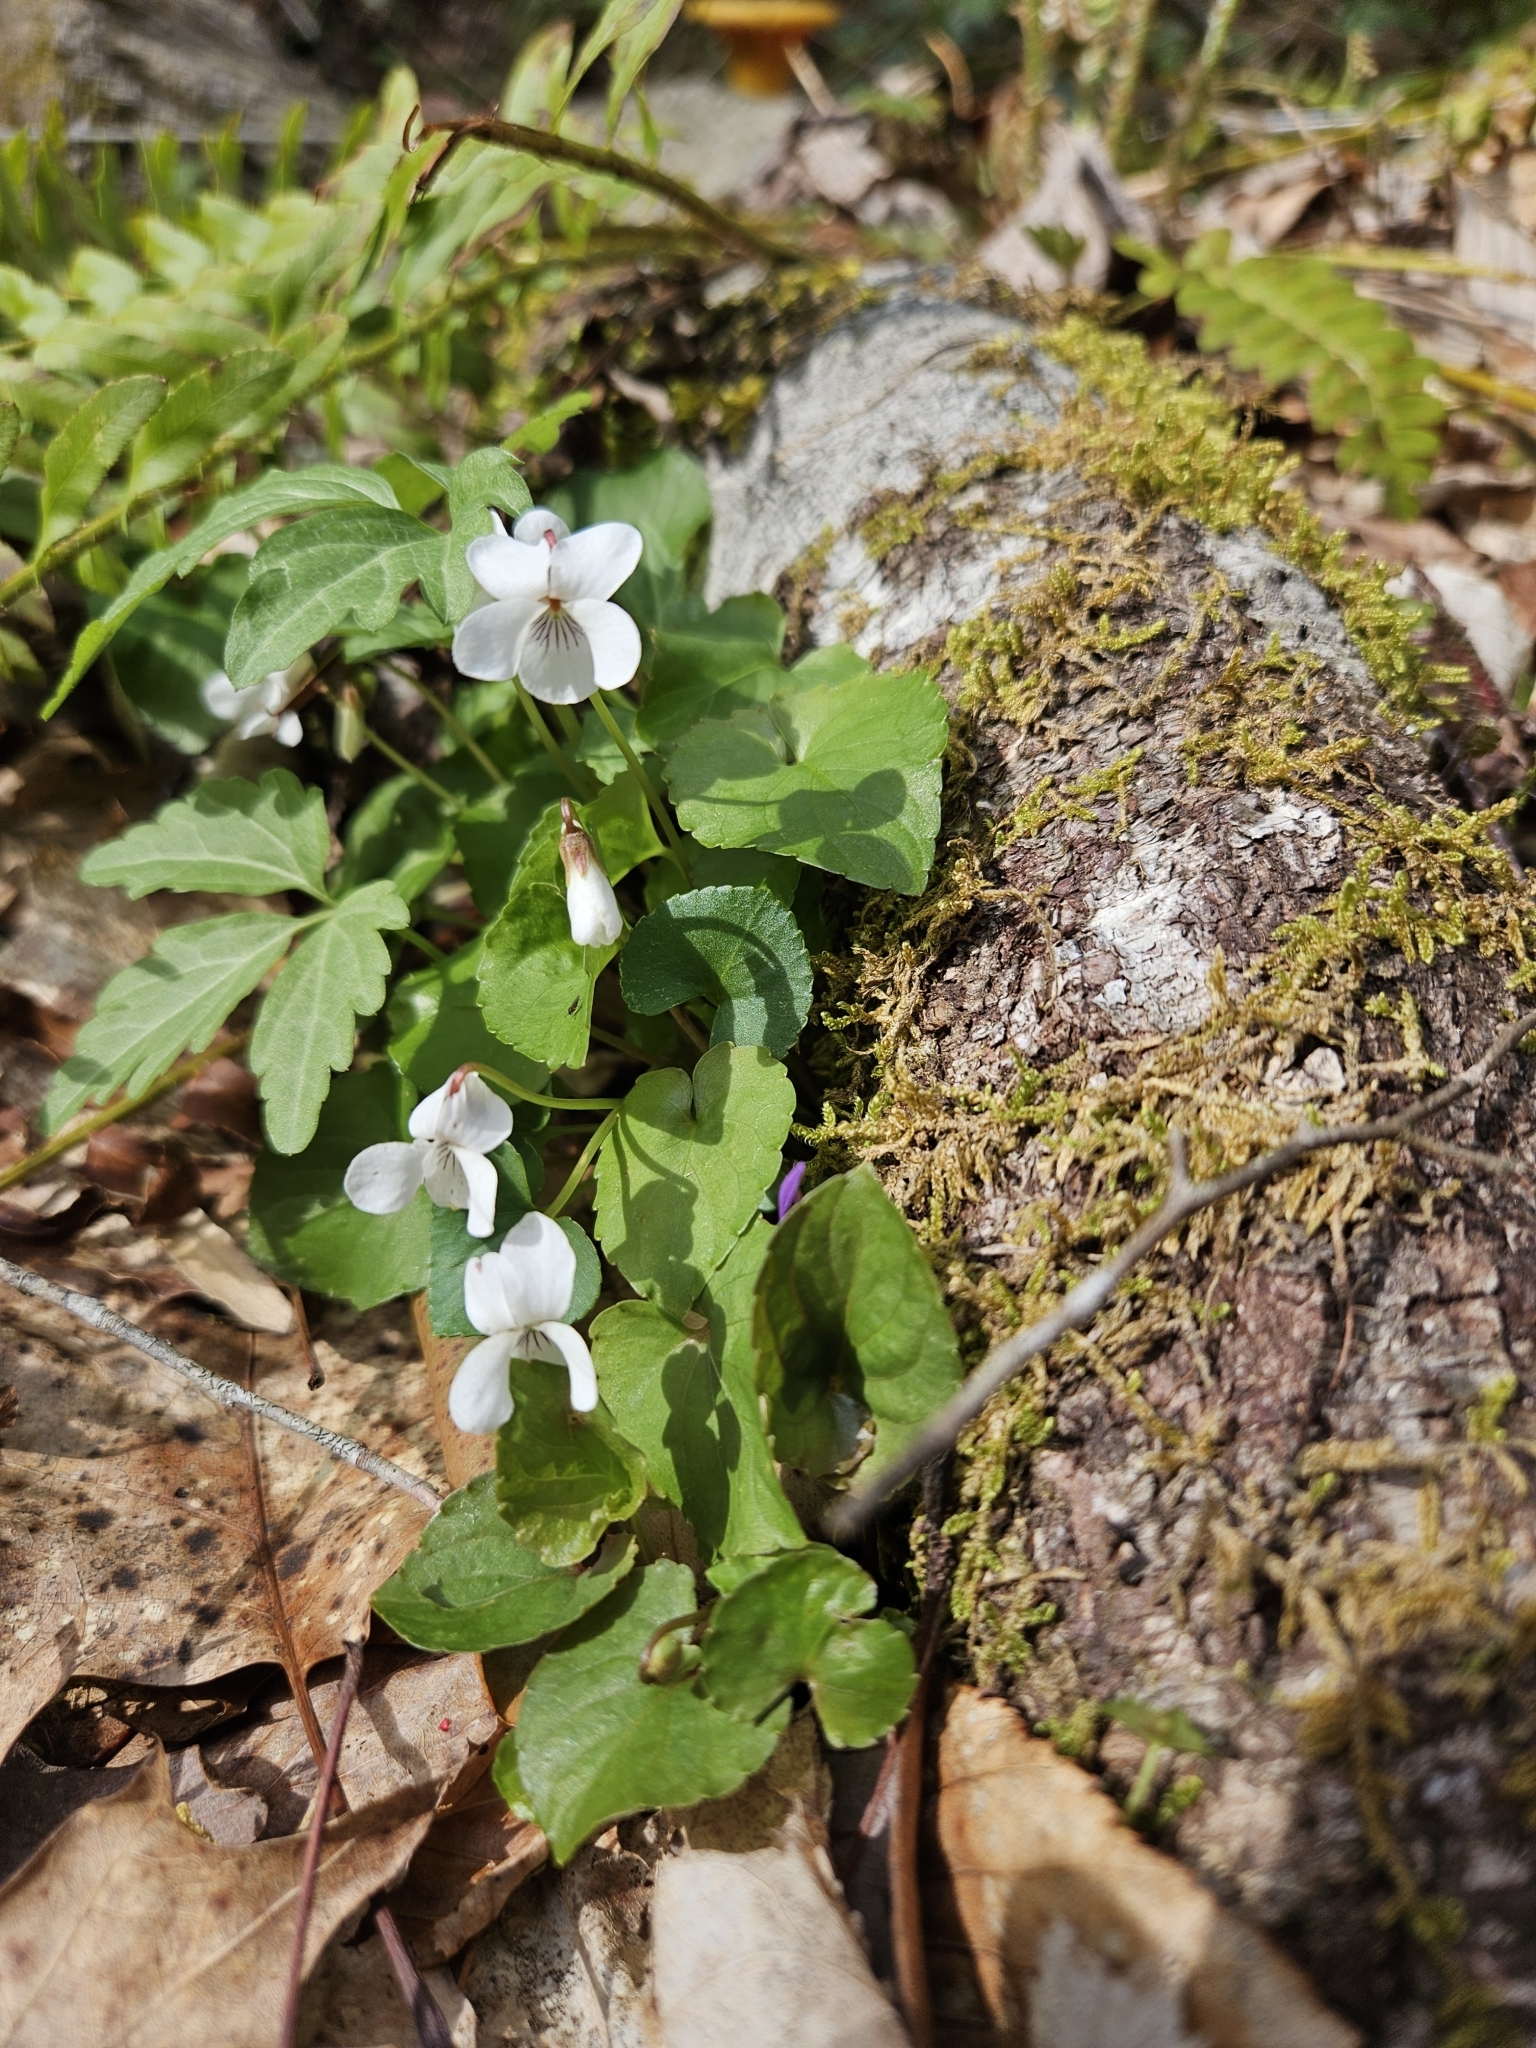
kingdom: Plantae
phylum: Tracheophyta
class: Magnoliopsida
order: Malpighiales
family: Violaceae
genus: Viola
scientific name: Viola blanda
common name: Sweet white violet
